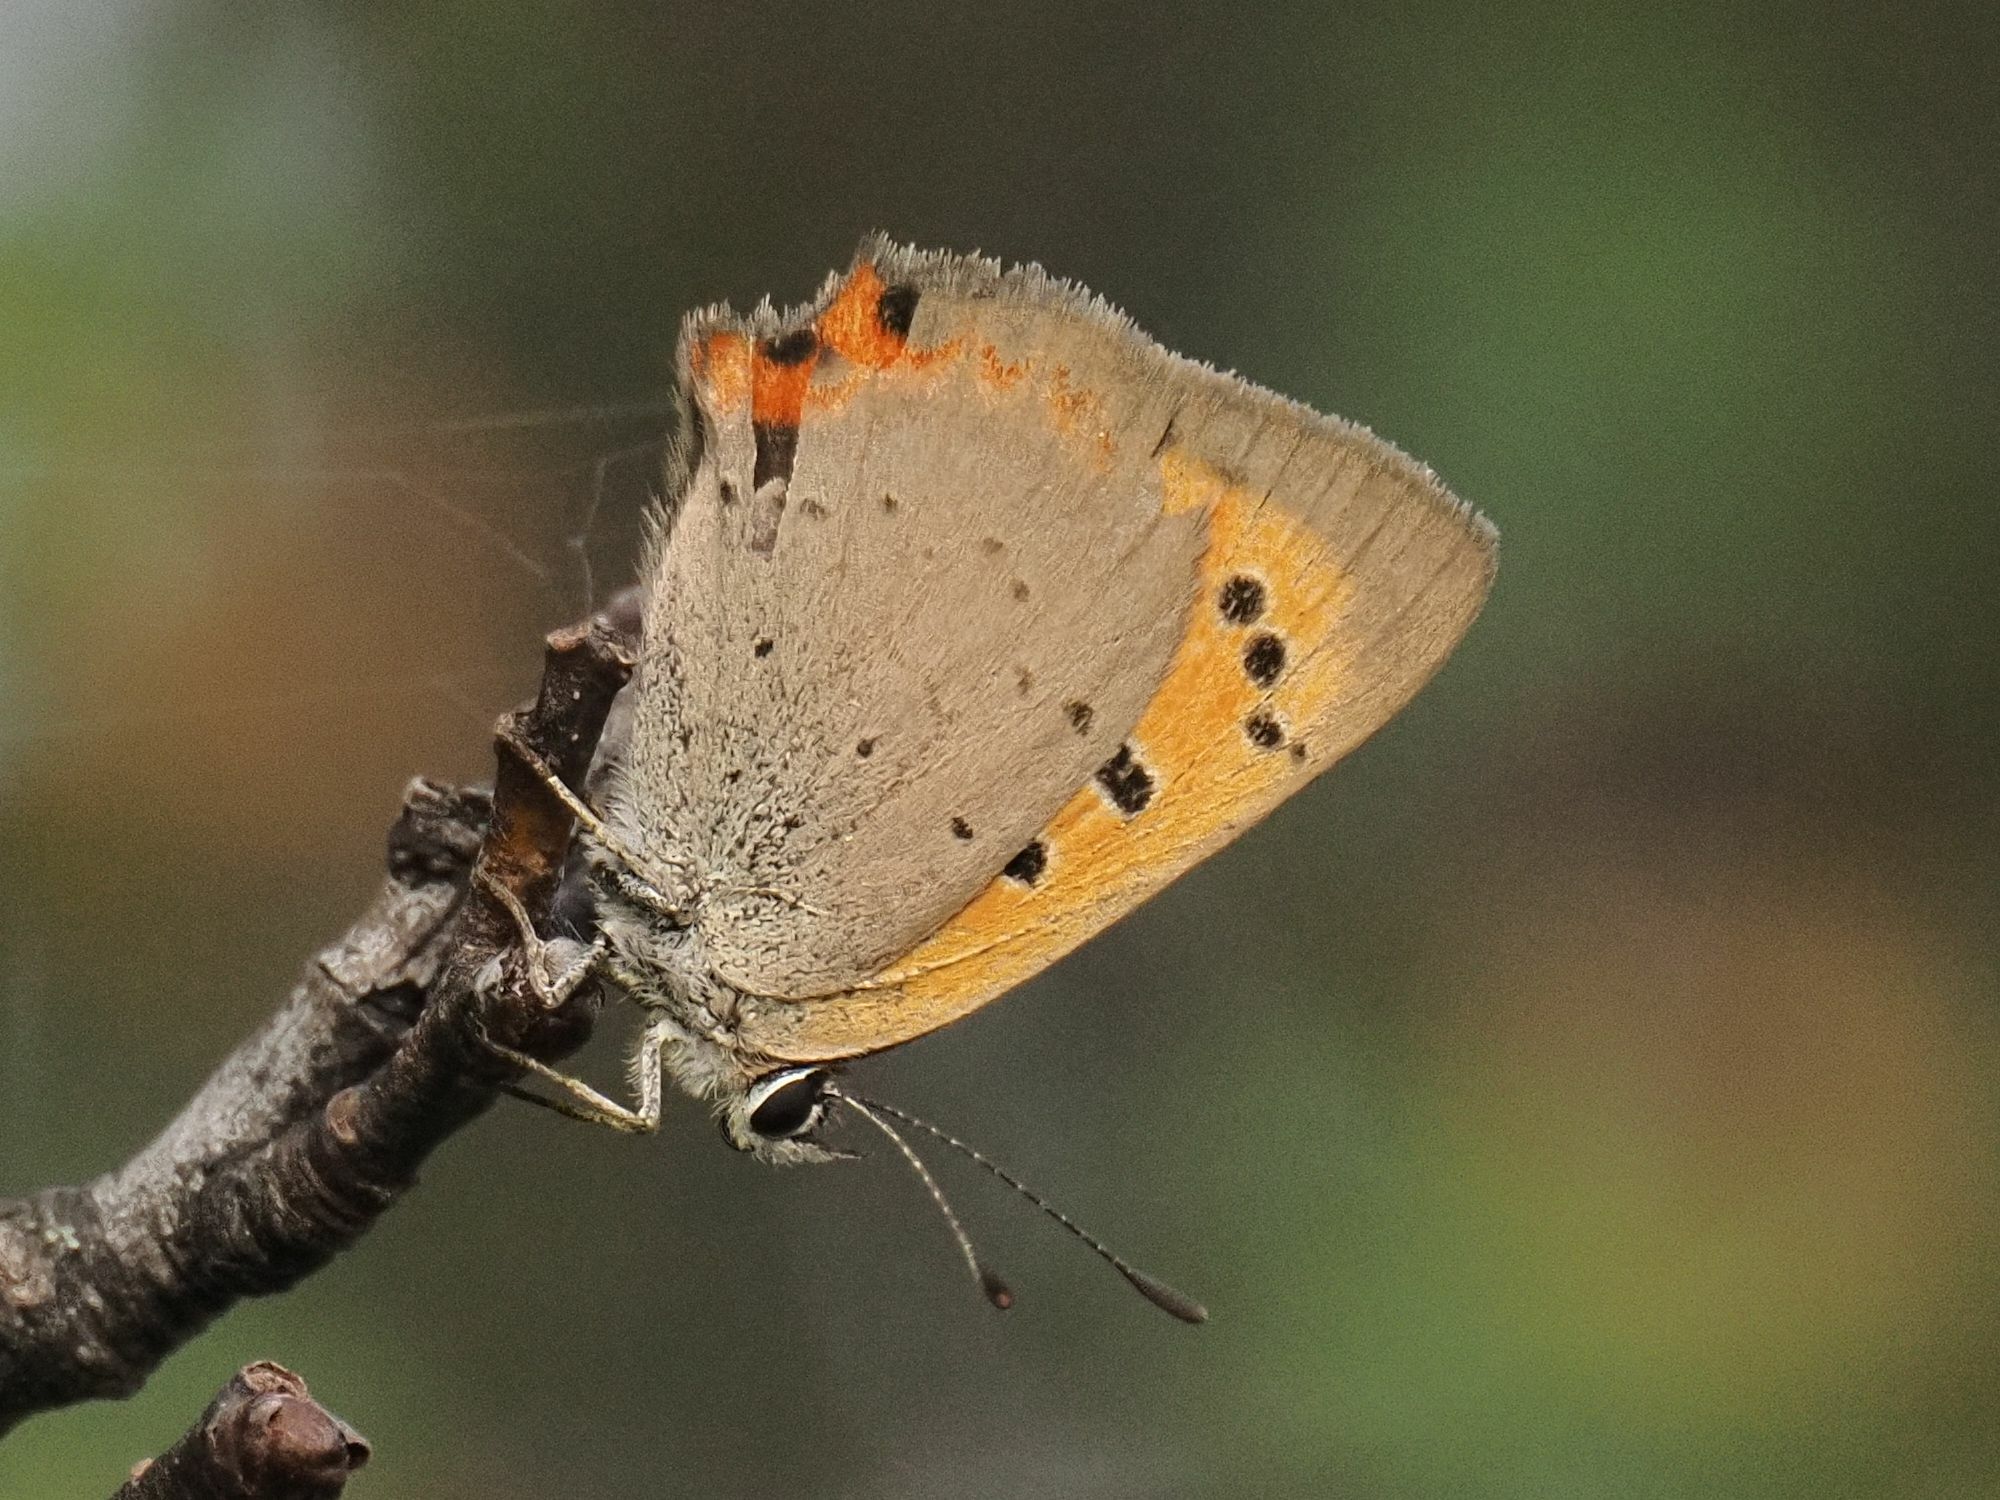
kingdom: Animalia
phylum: Arthropoda
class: Insecta
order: Lepidoptera
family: Lycaenidae
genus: Lycaena
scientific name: Lycaena phlaeas
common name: Small copper
